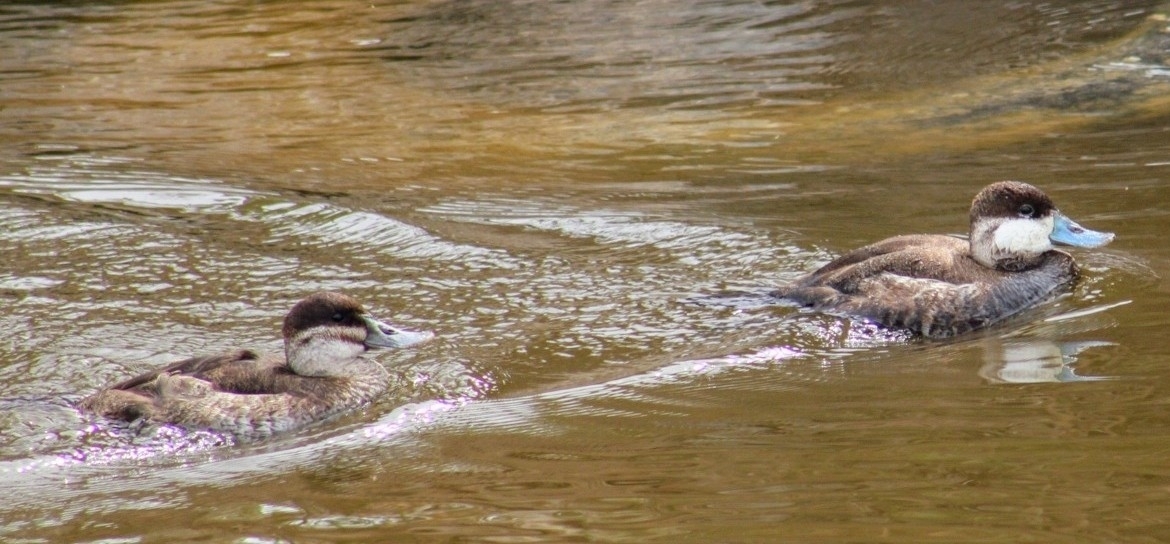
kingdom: Animalia
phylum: Chordata
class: Aves
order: Anseriformes
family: Anatidae
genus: Oxyura
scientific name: Oxyura jamaicensis
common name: Ruddy duck
